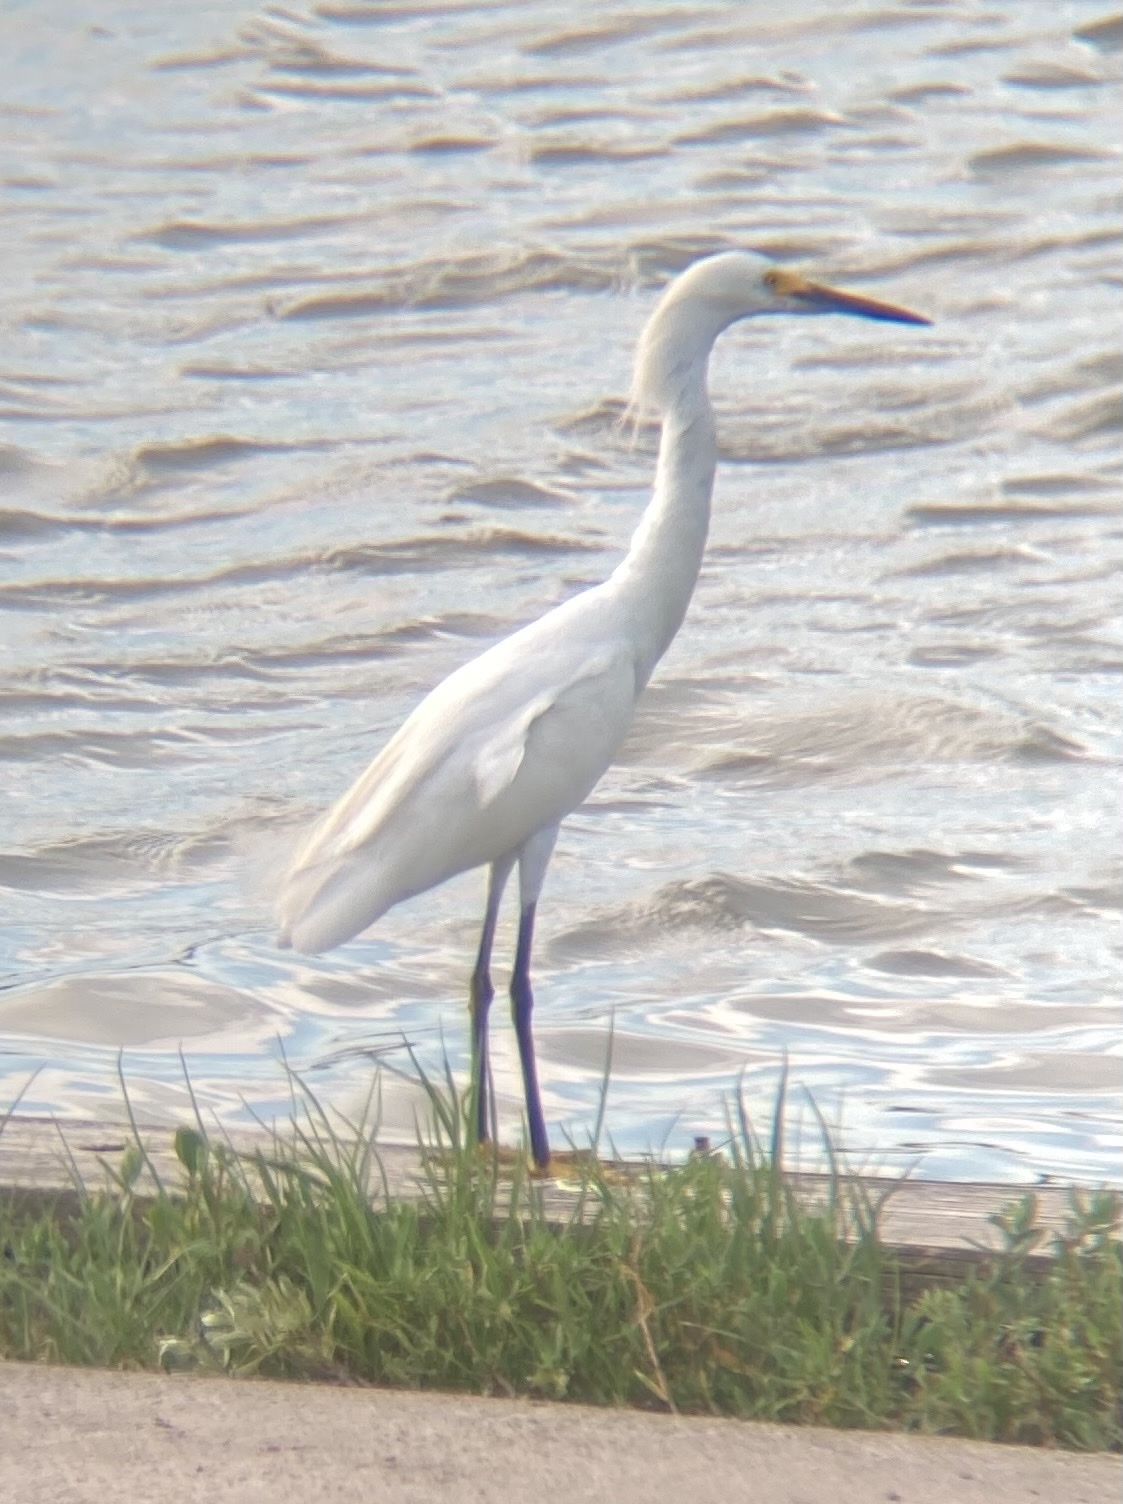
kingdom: Animalia
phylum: Chordata
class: Aves
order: Pelecaniformes
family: Ardeidae
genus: Egretta
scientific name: Egretta thula
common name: Snowy egret
